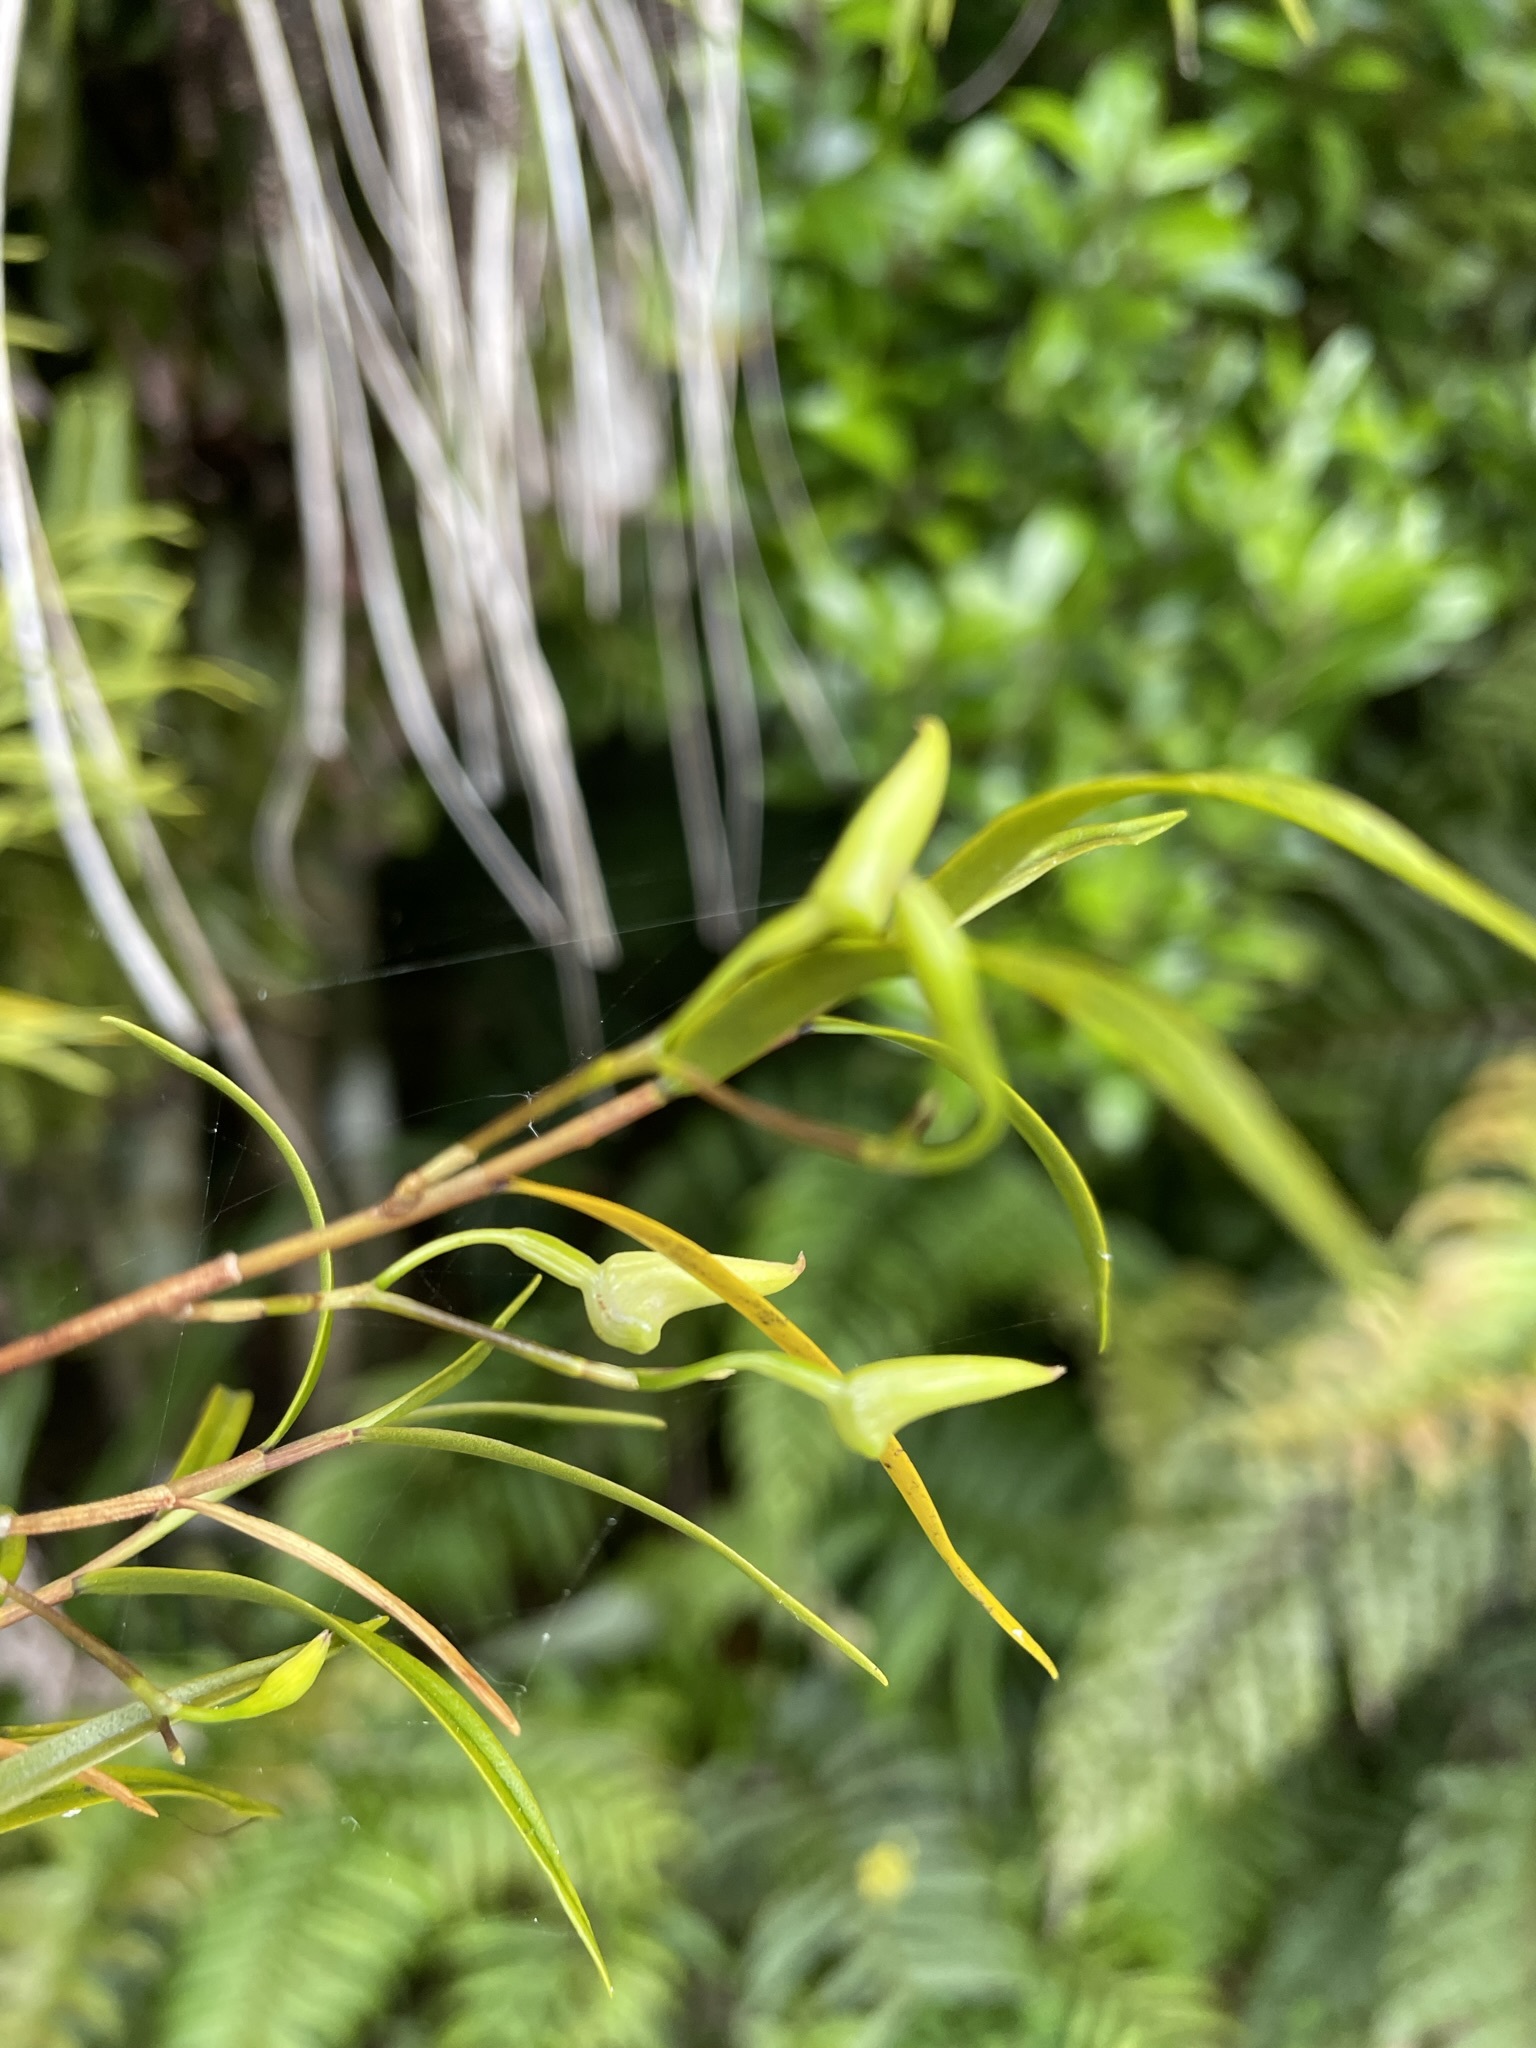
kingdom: Plantae
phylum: Tracheophyta
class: Liliopsida
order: Asparagales
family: Orchidaceae
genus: Dendrobium
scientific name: Dendrobium cunninghamii
